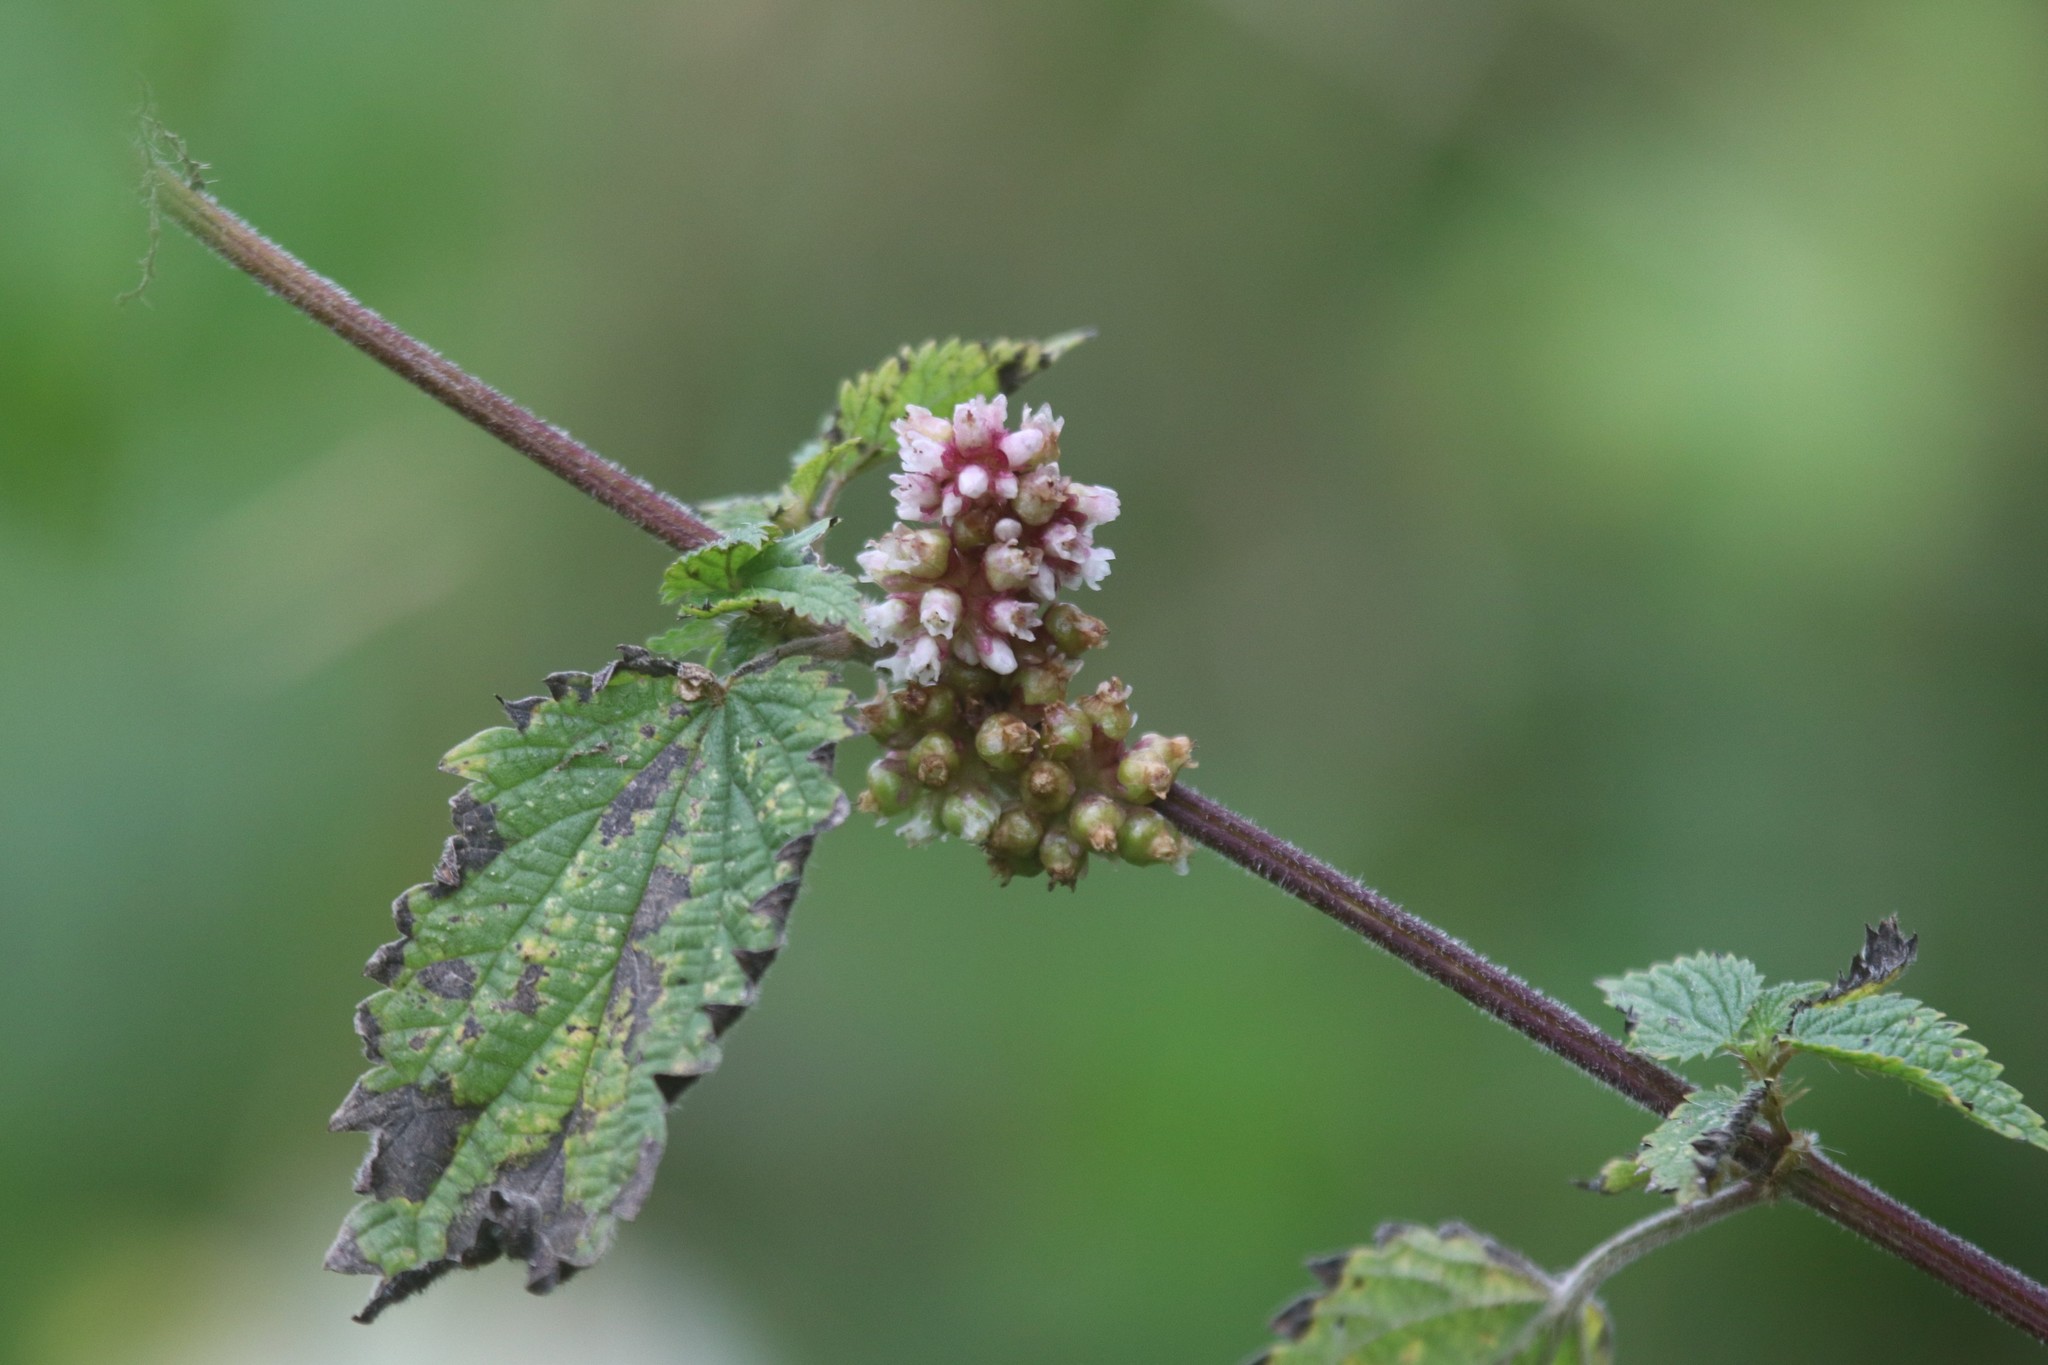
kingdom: Plantae
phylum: Tracheophyta
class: Magnoliopsida
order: Solanales
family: Convolvulaceae
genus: Cuscuta
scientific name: Cuscuta europaea
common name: Greater dodder
